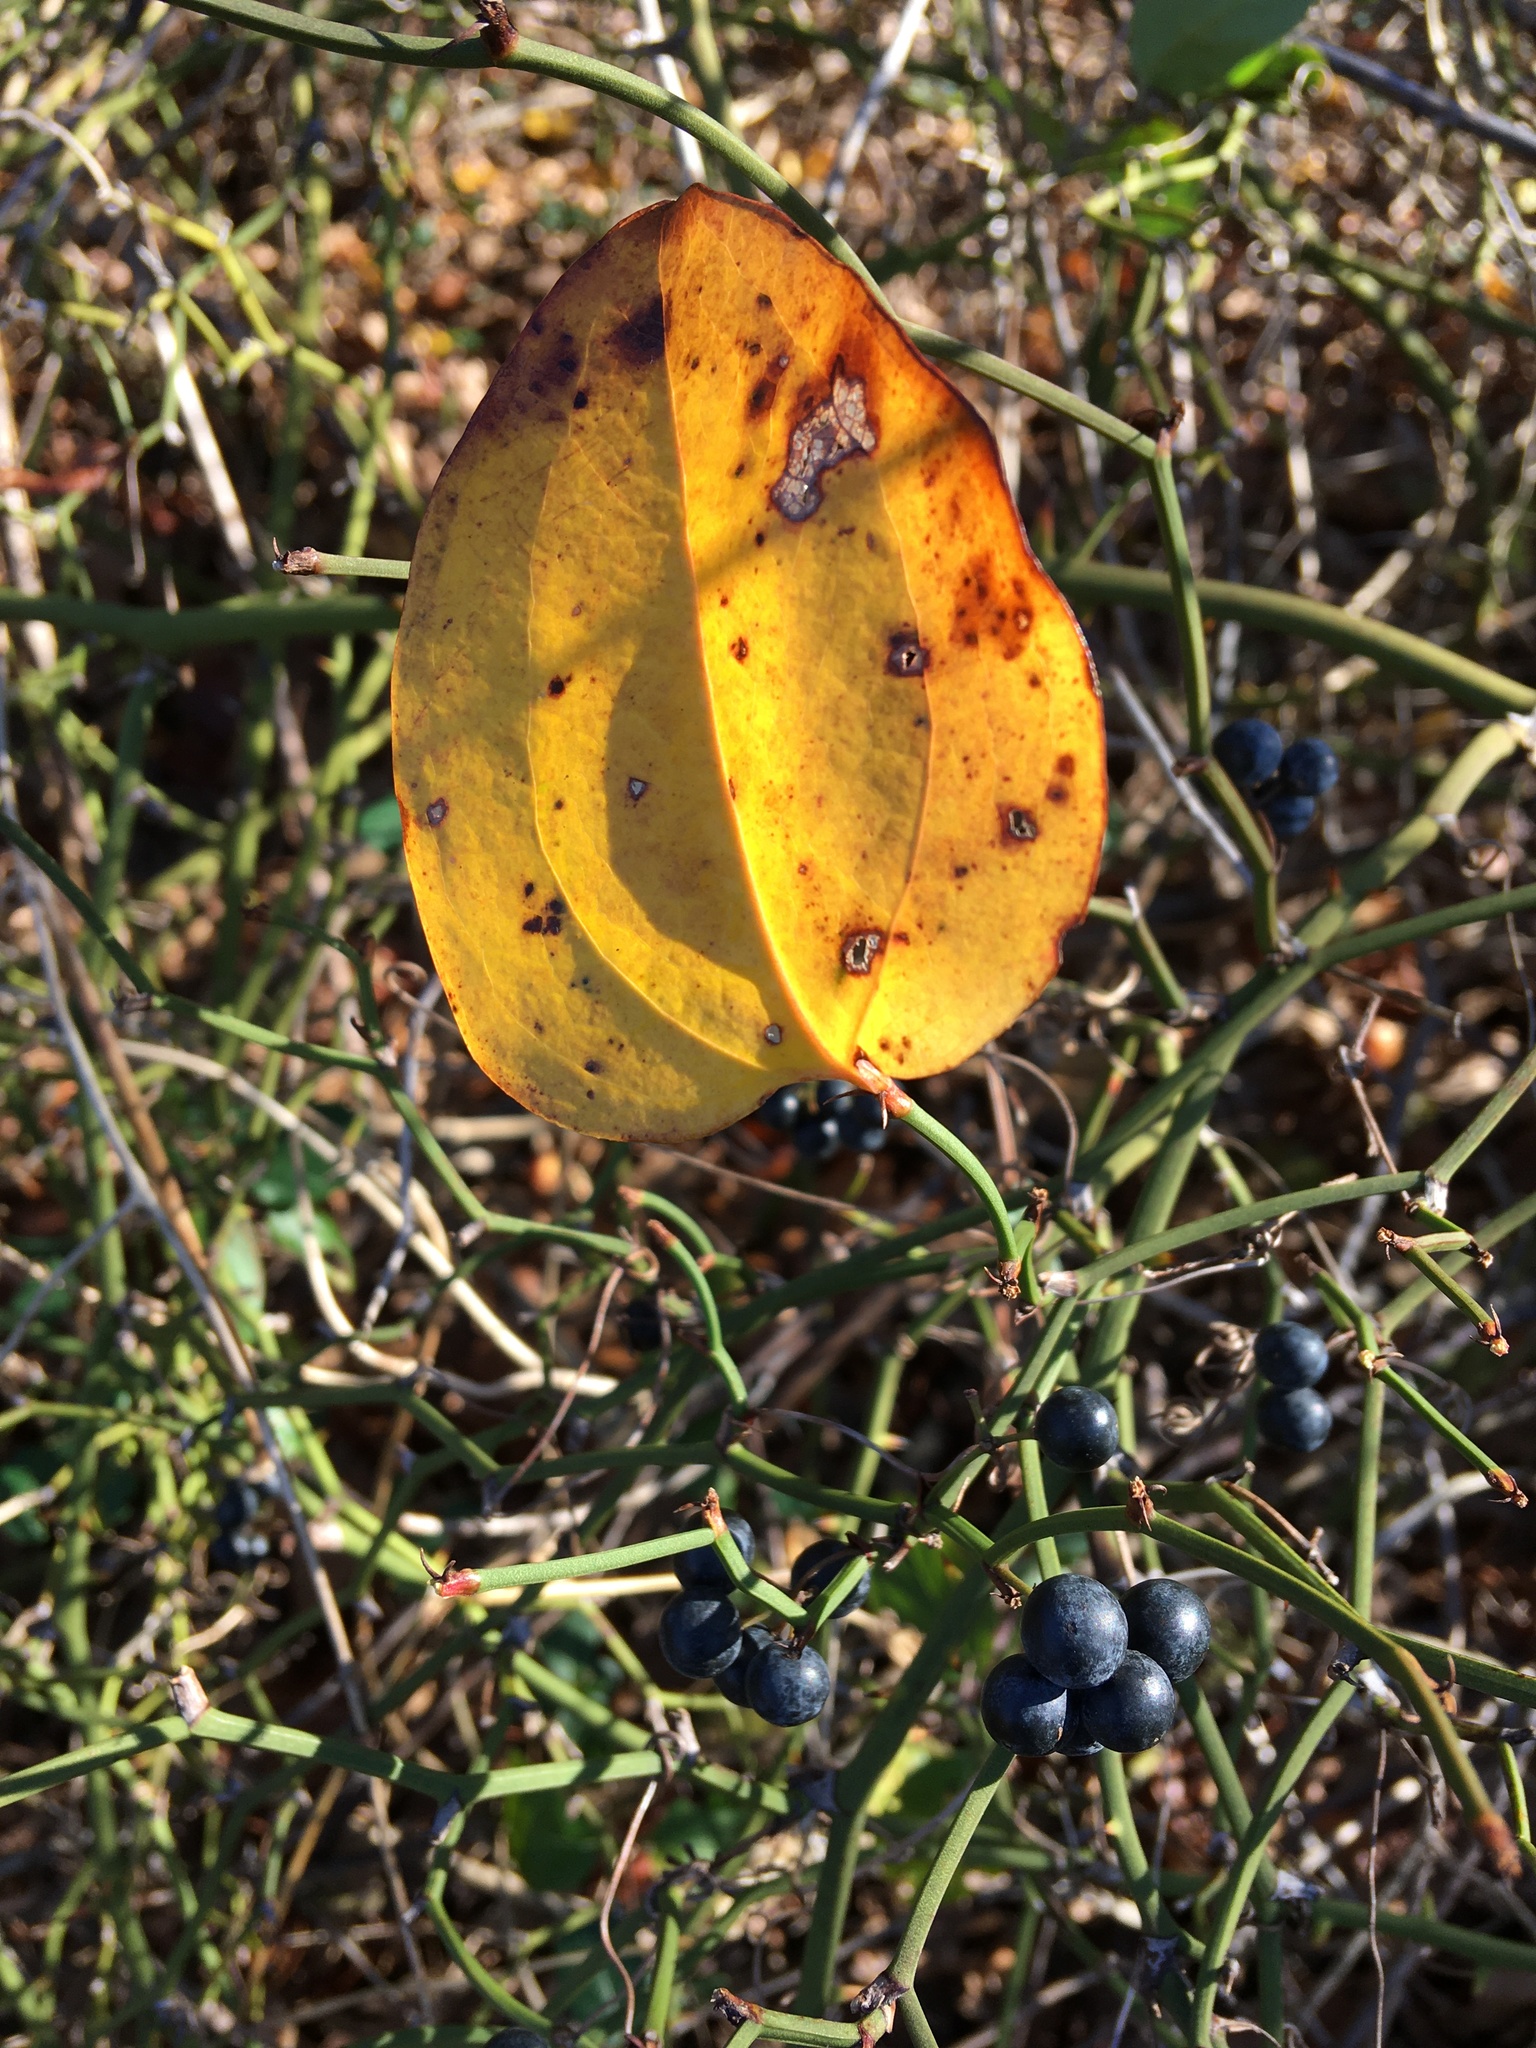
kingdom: Plantae
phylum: Tracheophyta
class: Liliopsida
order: Liliales
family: Smilacaceae
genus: Smilax
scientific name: Smilax rotundifolia
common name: Bullbriar
